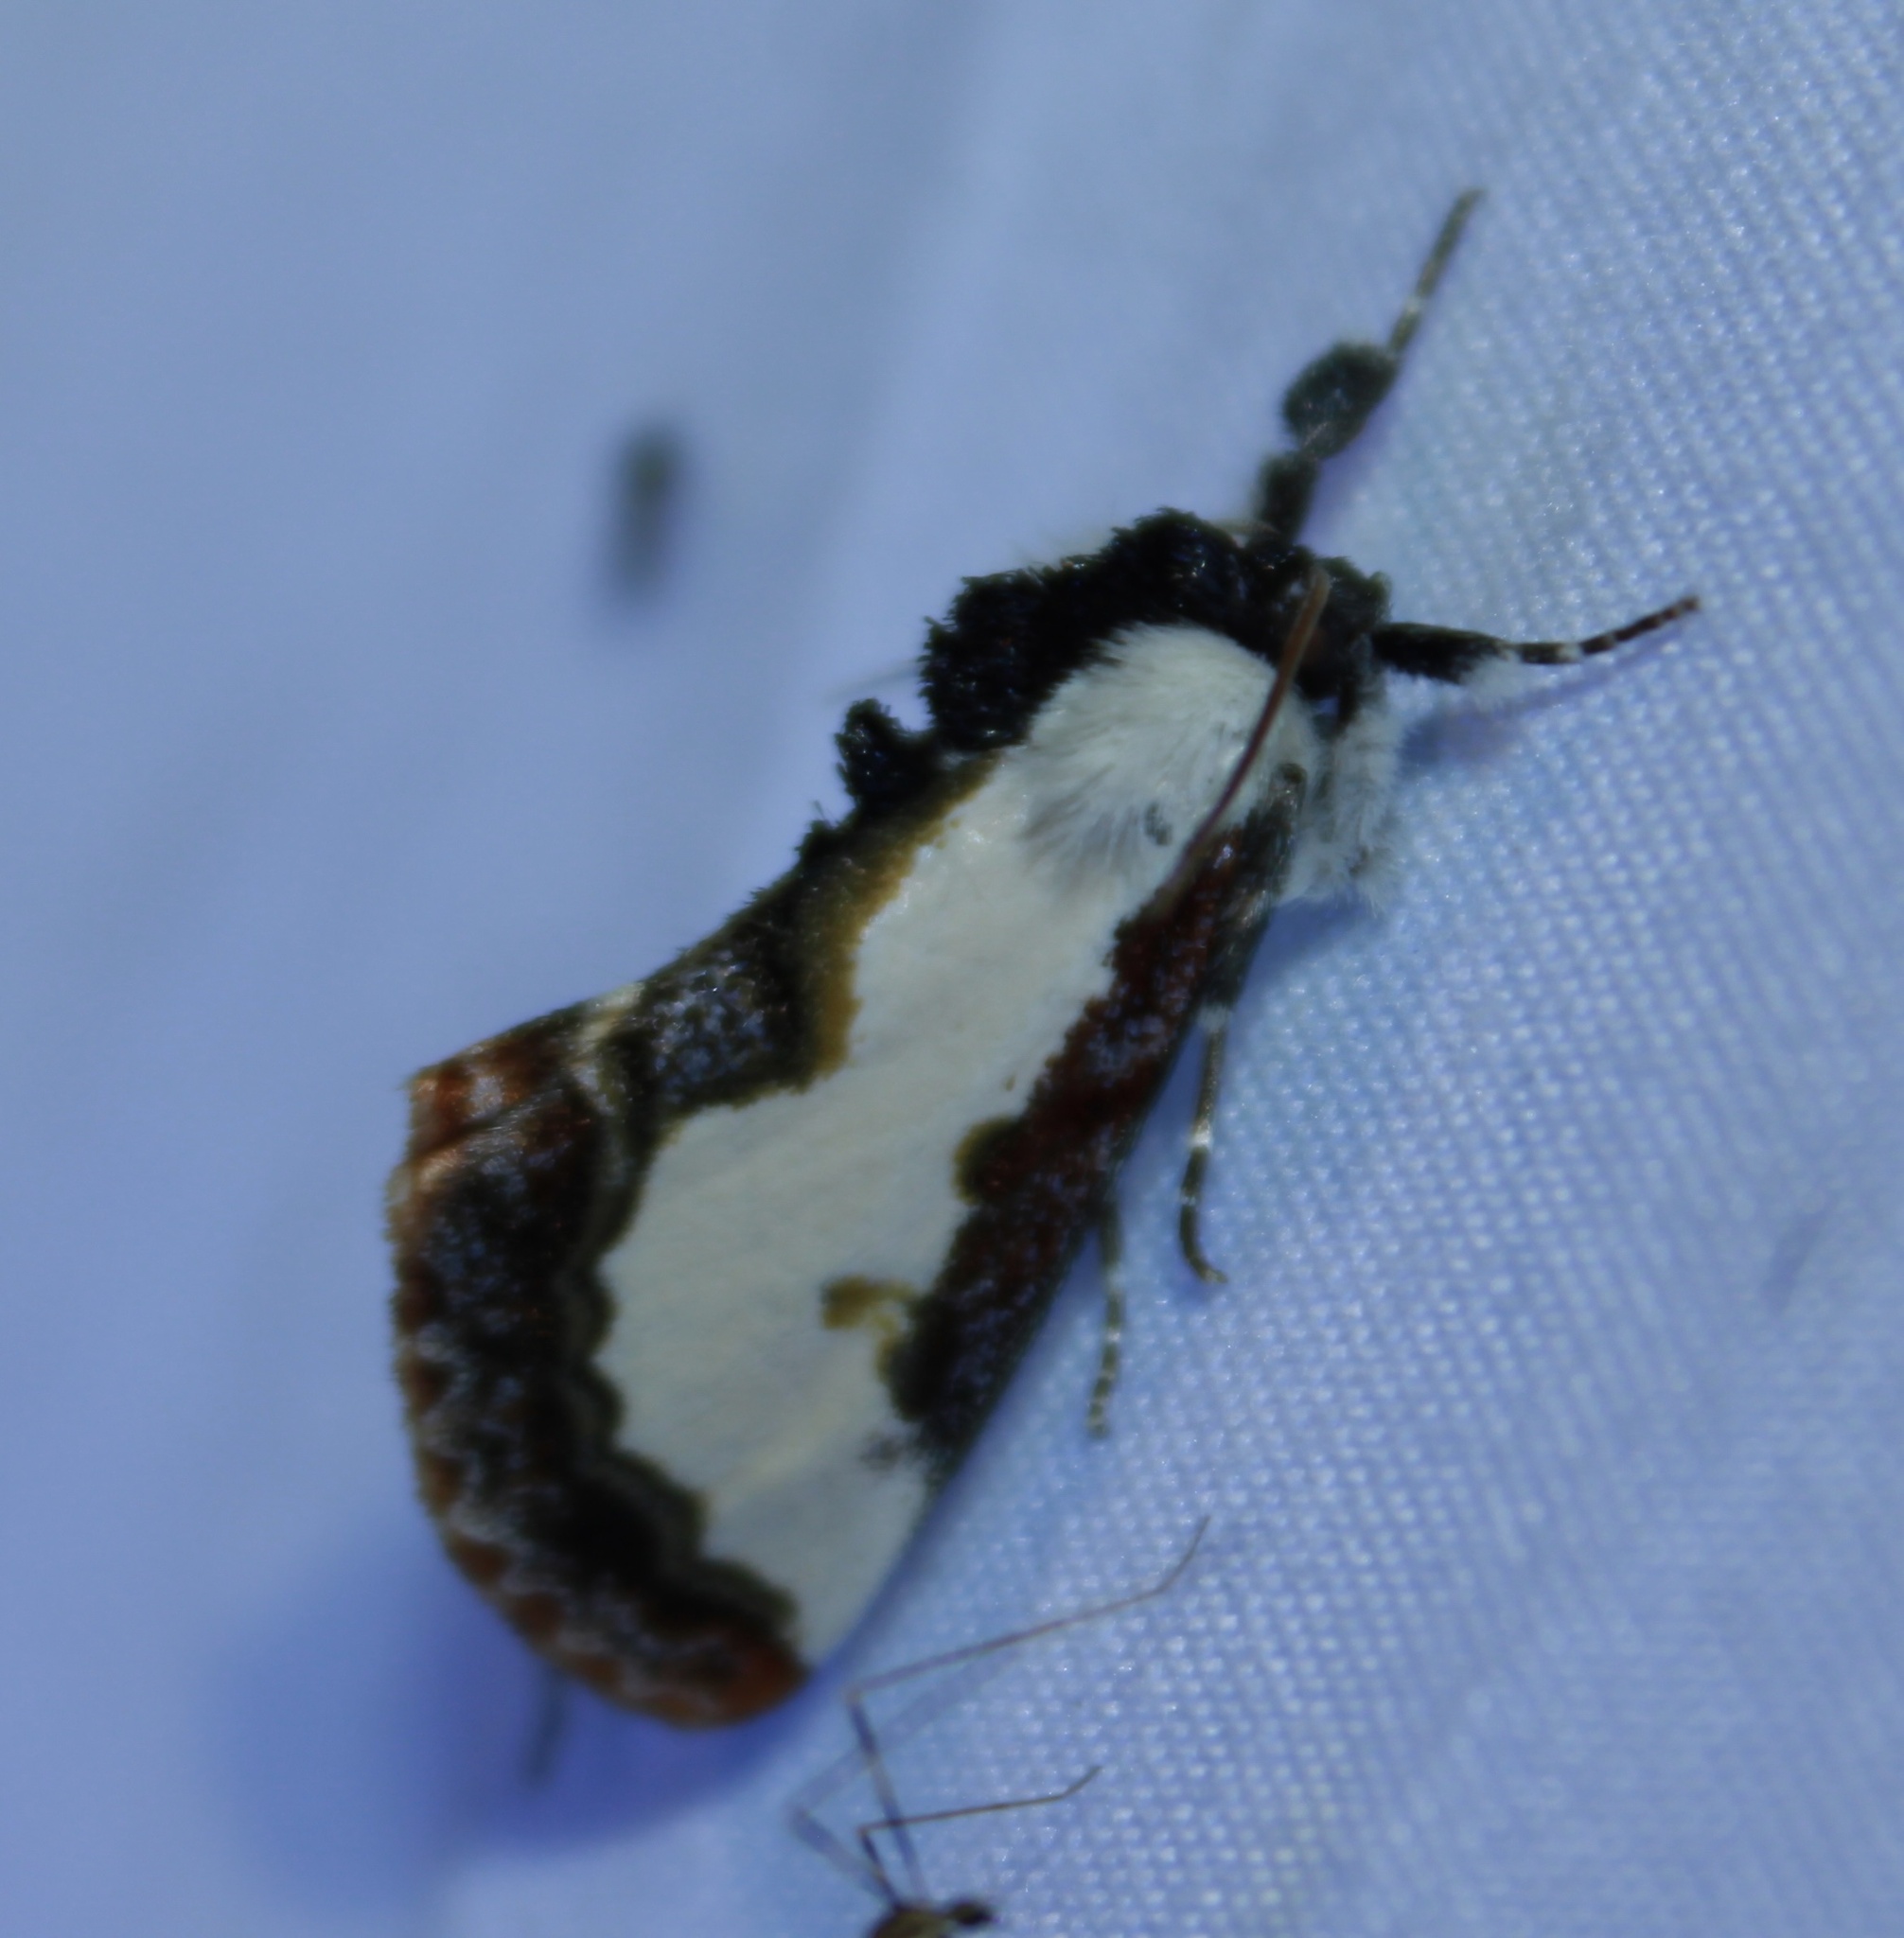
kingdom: Animalia
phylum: Arthropoda
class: Insecta
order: Lepidoptera
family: Noctuidae
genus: Eudryas
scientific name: Eudryas unio
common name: Pearly wood-nymph
